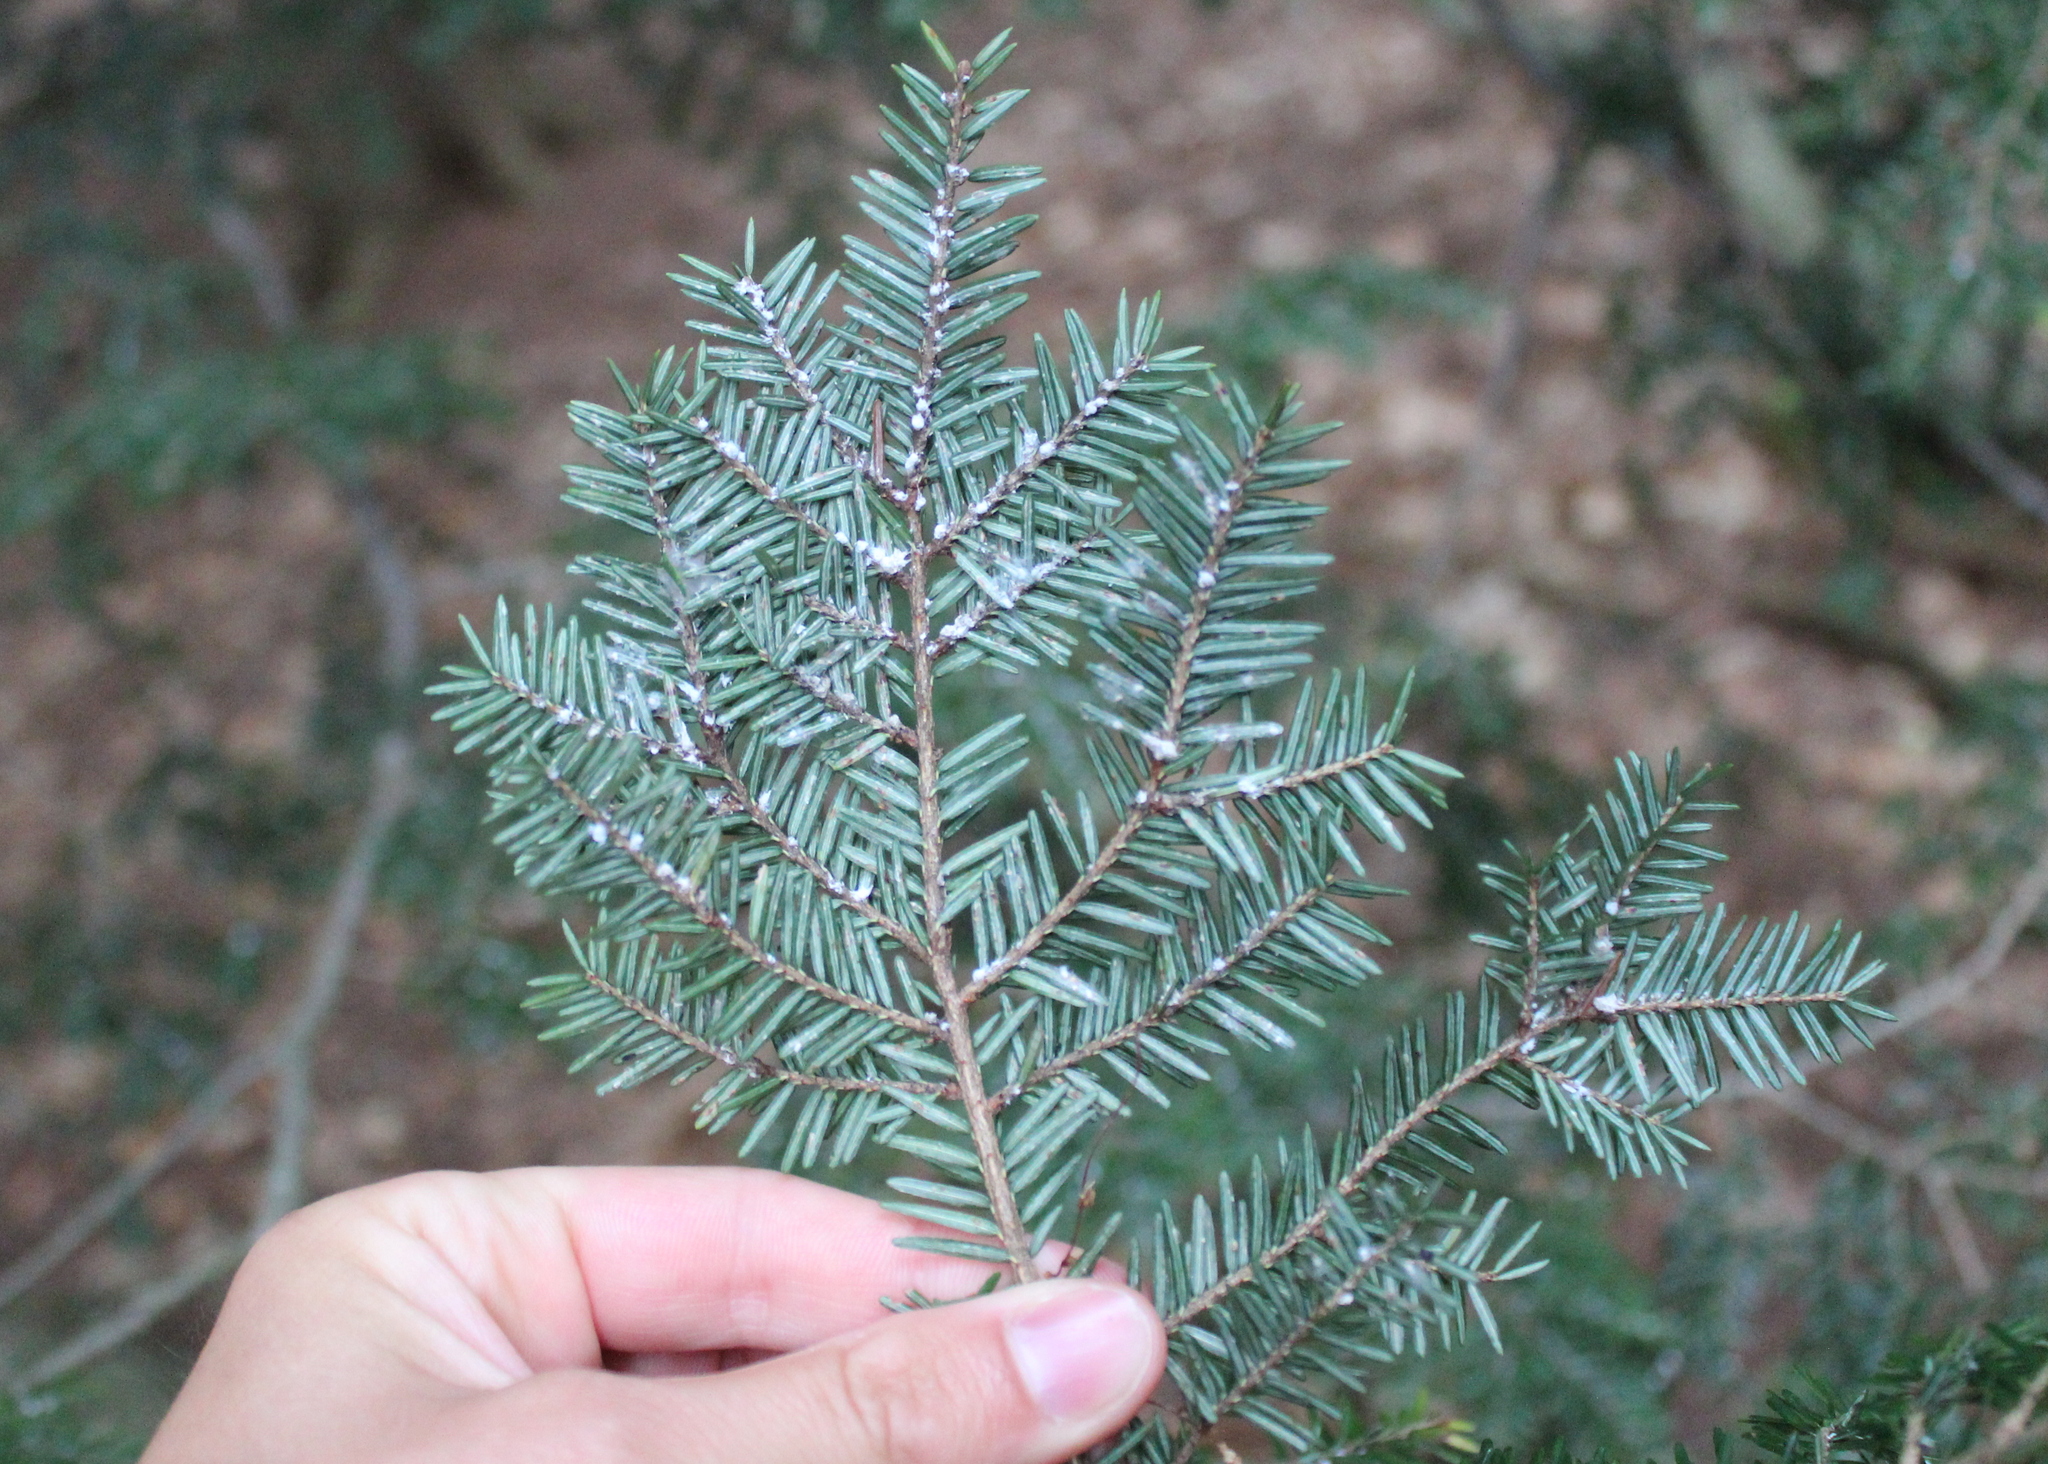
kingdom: Plantae
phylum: Tracheophyta
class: Pinopsida
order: Pinales
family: Pinaceae
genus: Tsuga
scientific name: Tsuga canadensis
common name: Eastern hemlock
